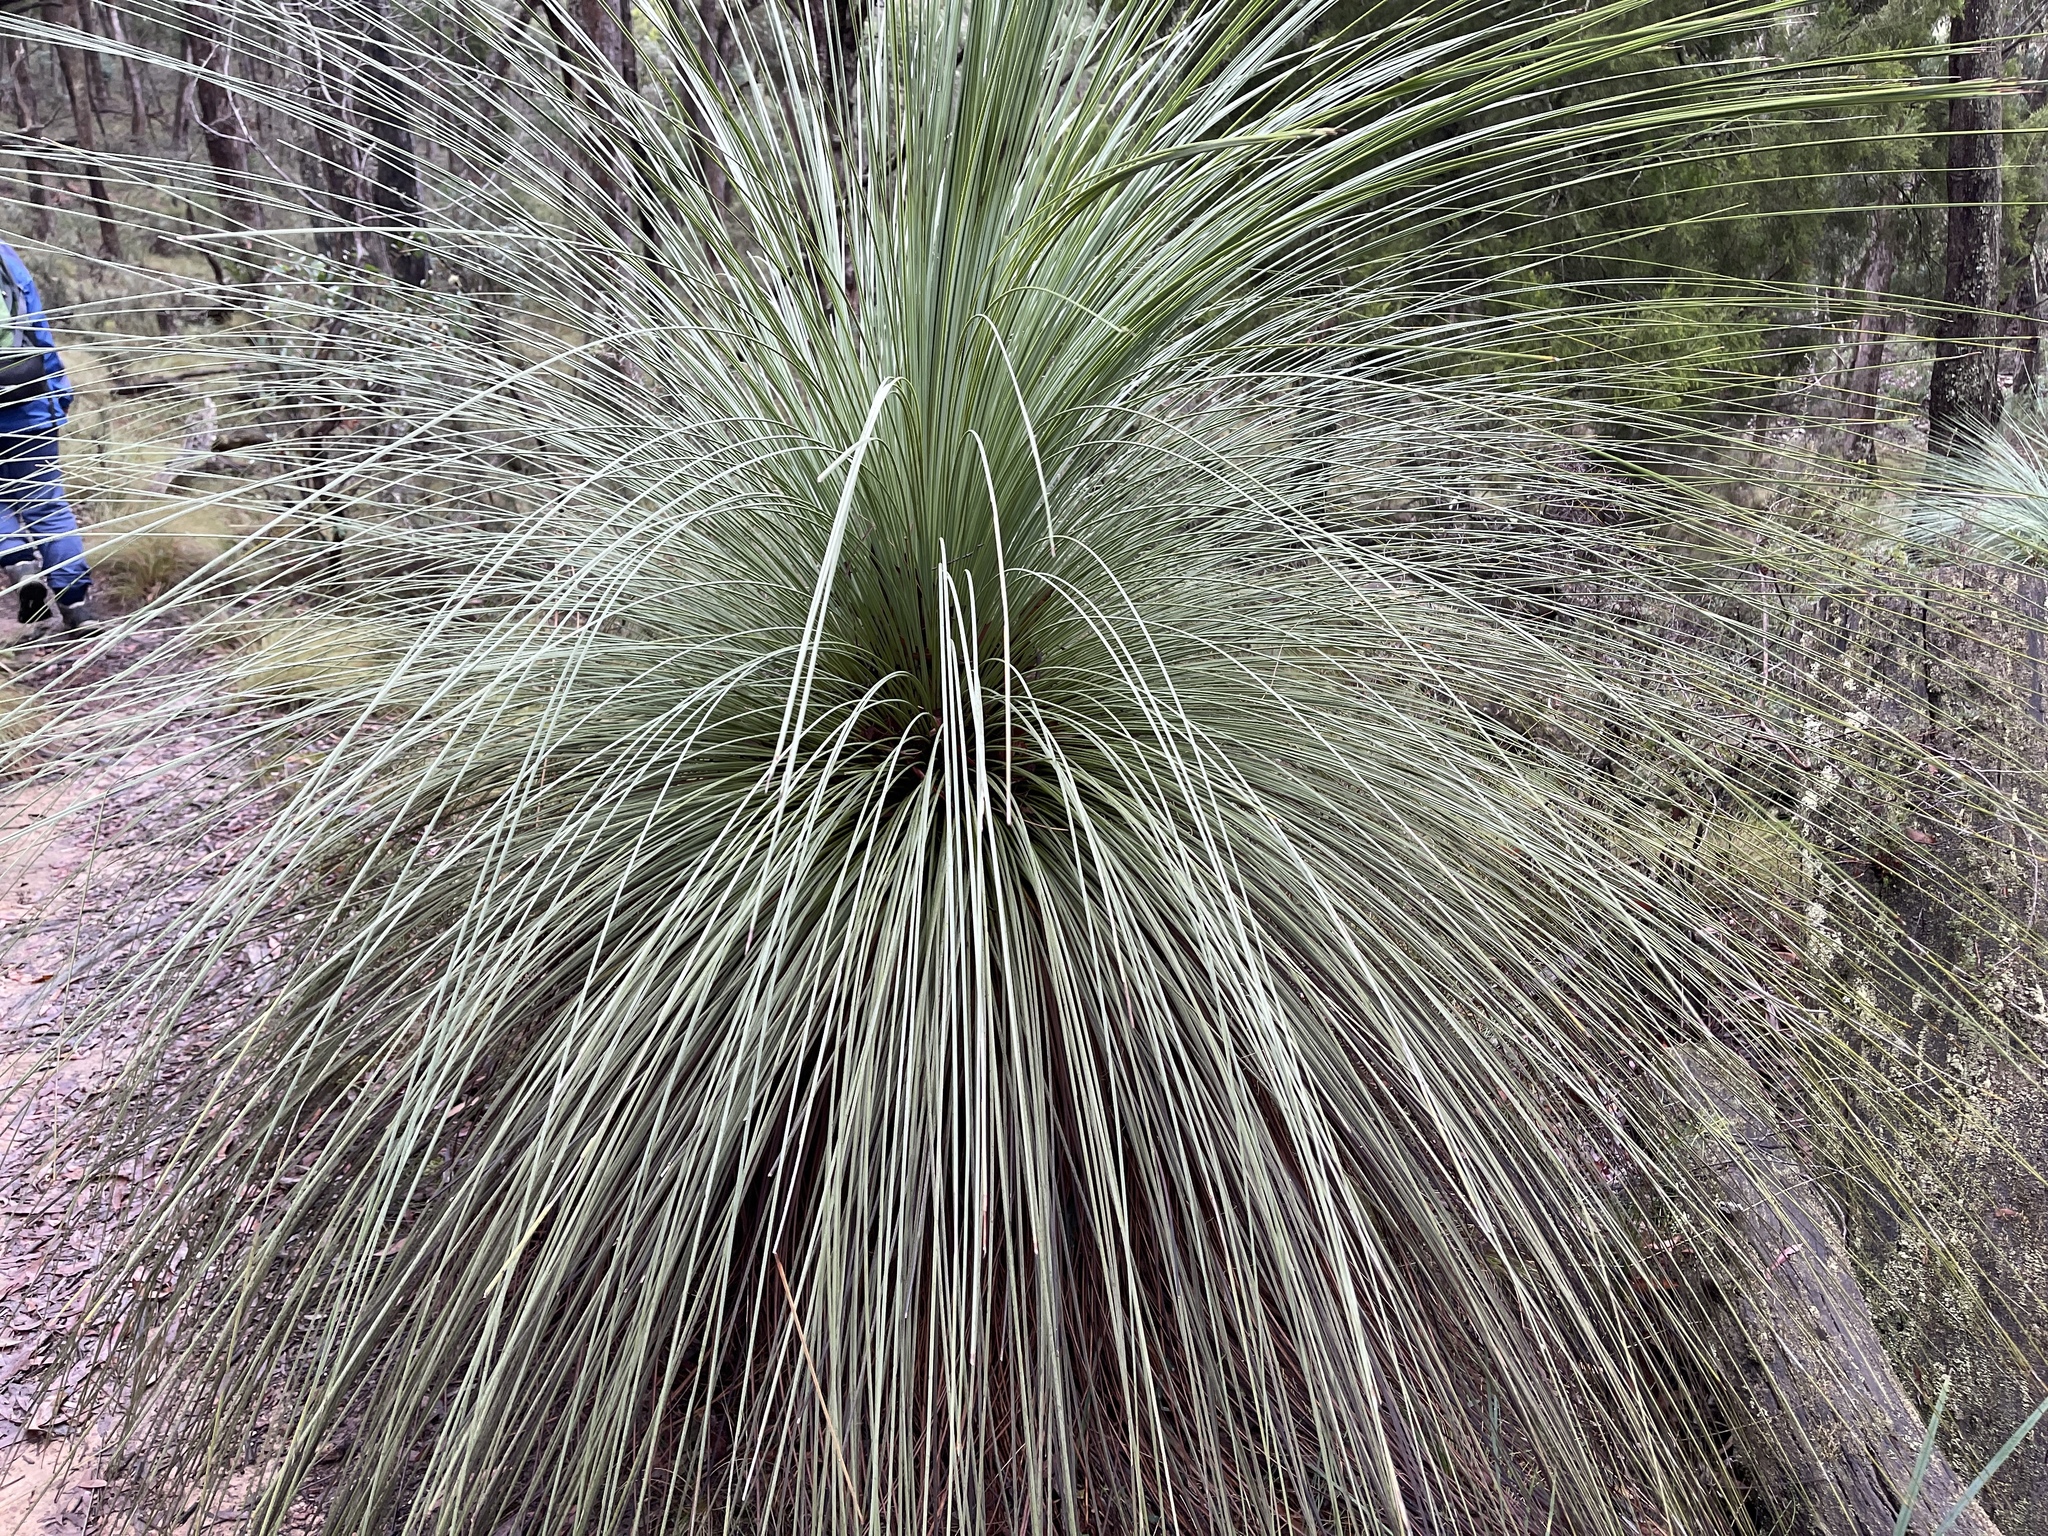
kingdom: Plantae
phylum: Tracheophyta
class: Liliopsida
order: Asparagales
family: Asphodelaceae
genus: Xanthorrhoea
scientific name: Xanthorrhoea australis
